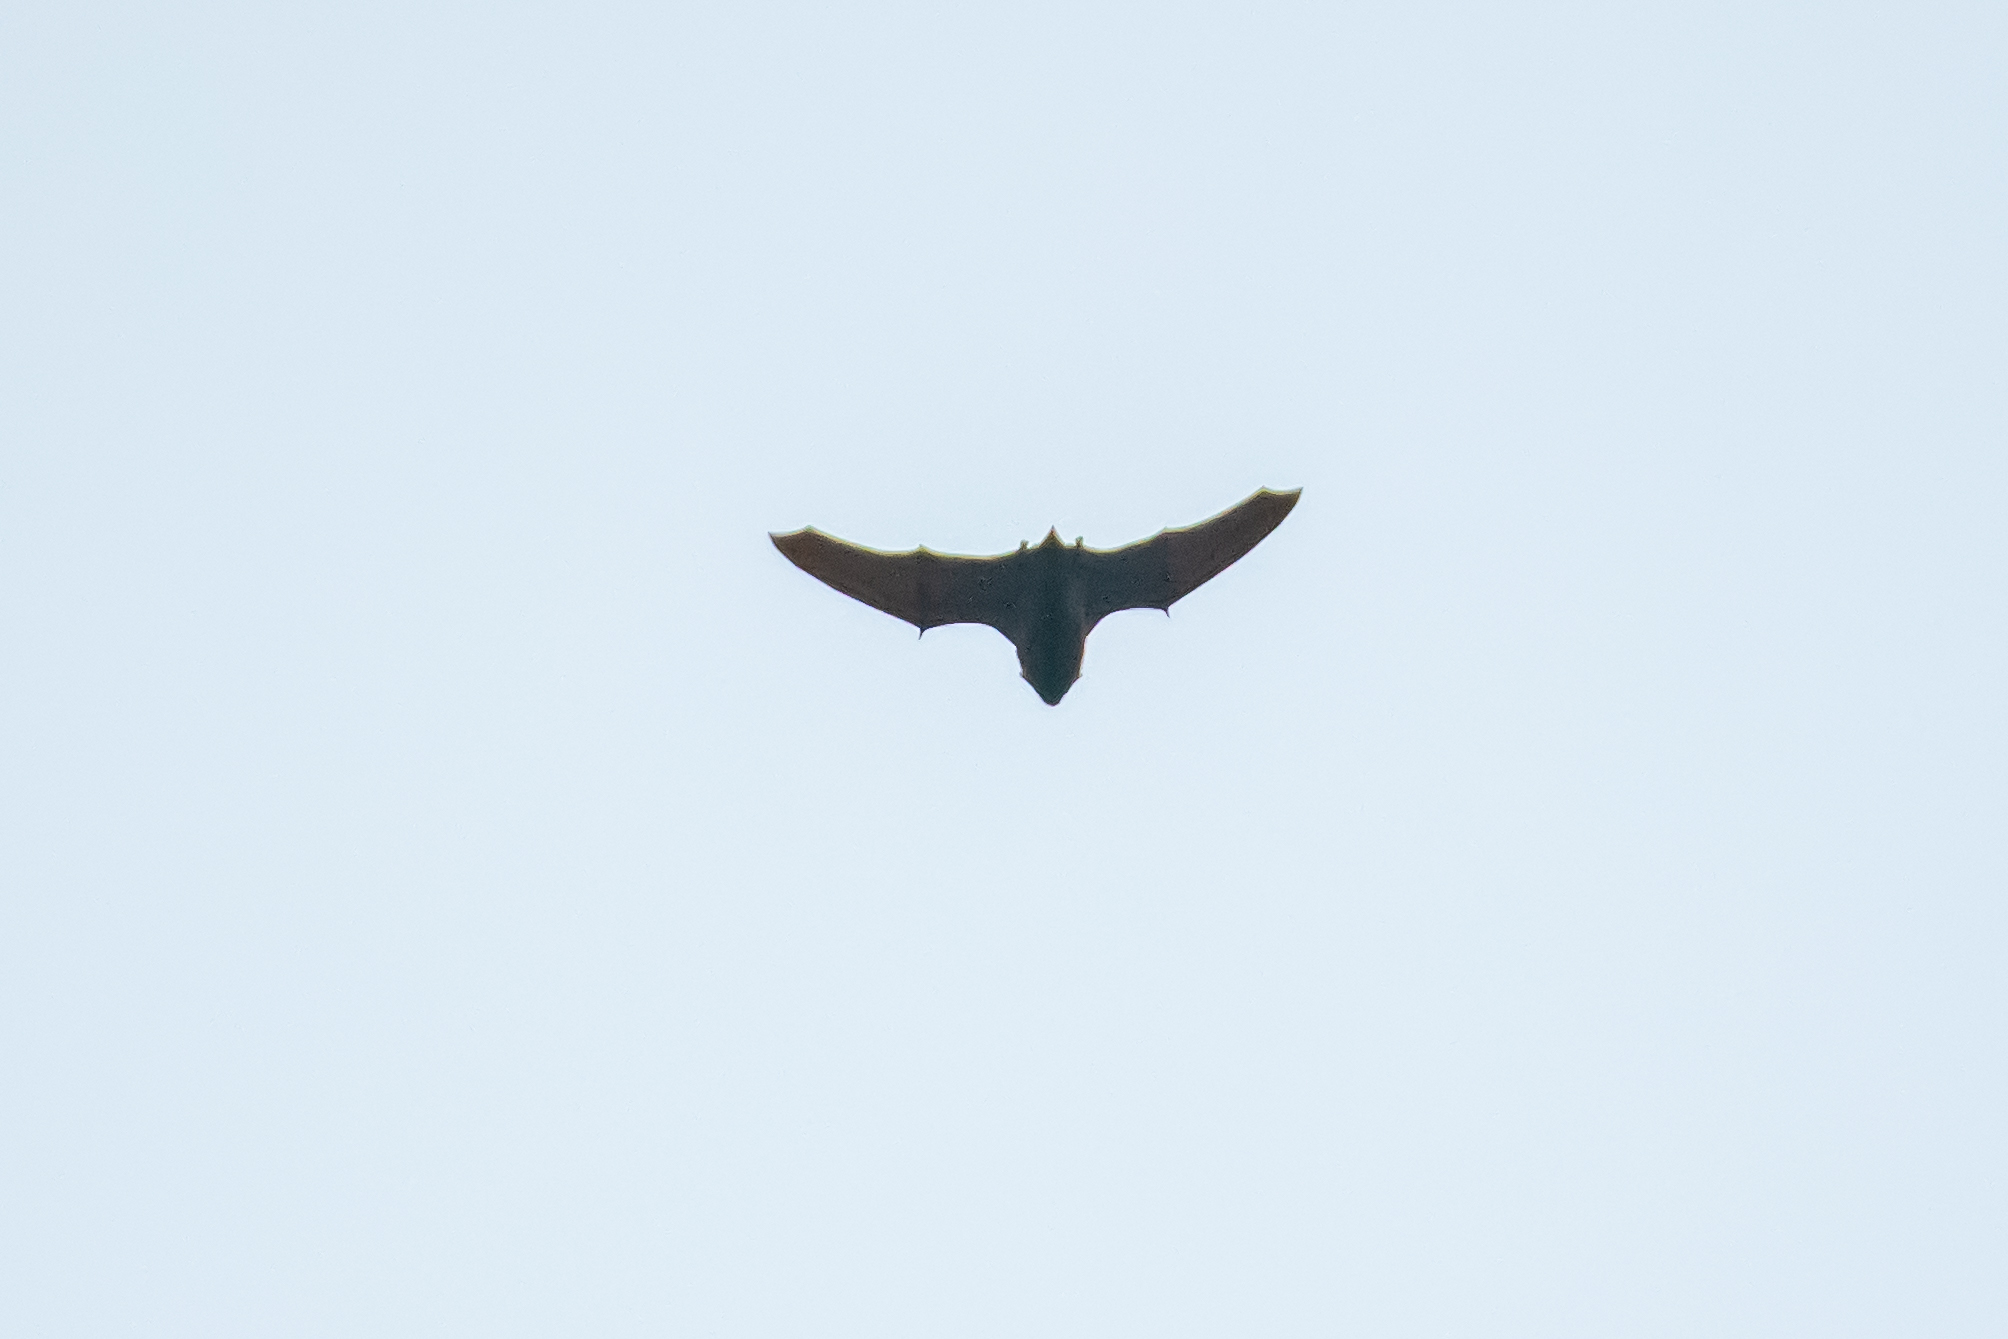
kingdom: Animalia
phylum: Chordata
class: Mammalia
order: Chiroptera
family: Vespertilionidae
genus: Nyctalus
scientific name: Nyctalus azoreum
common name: Azores noctule
